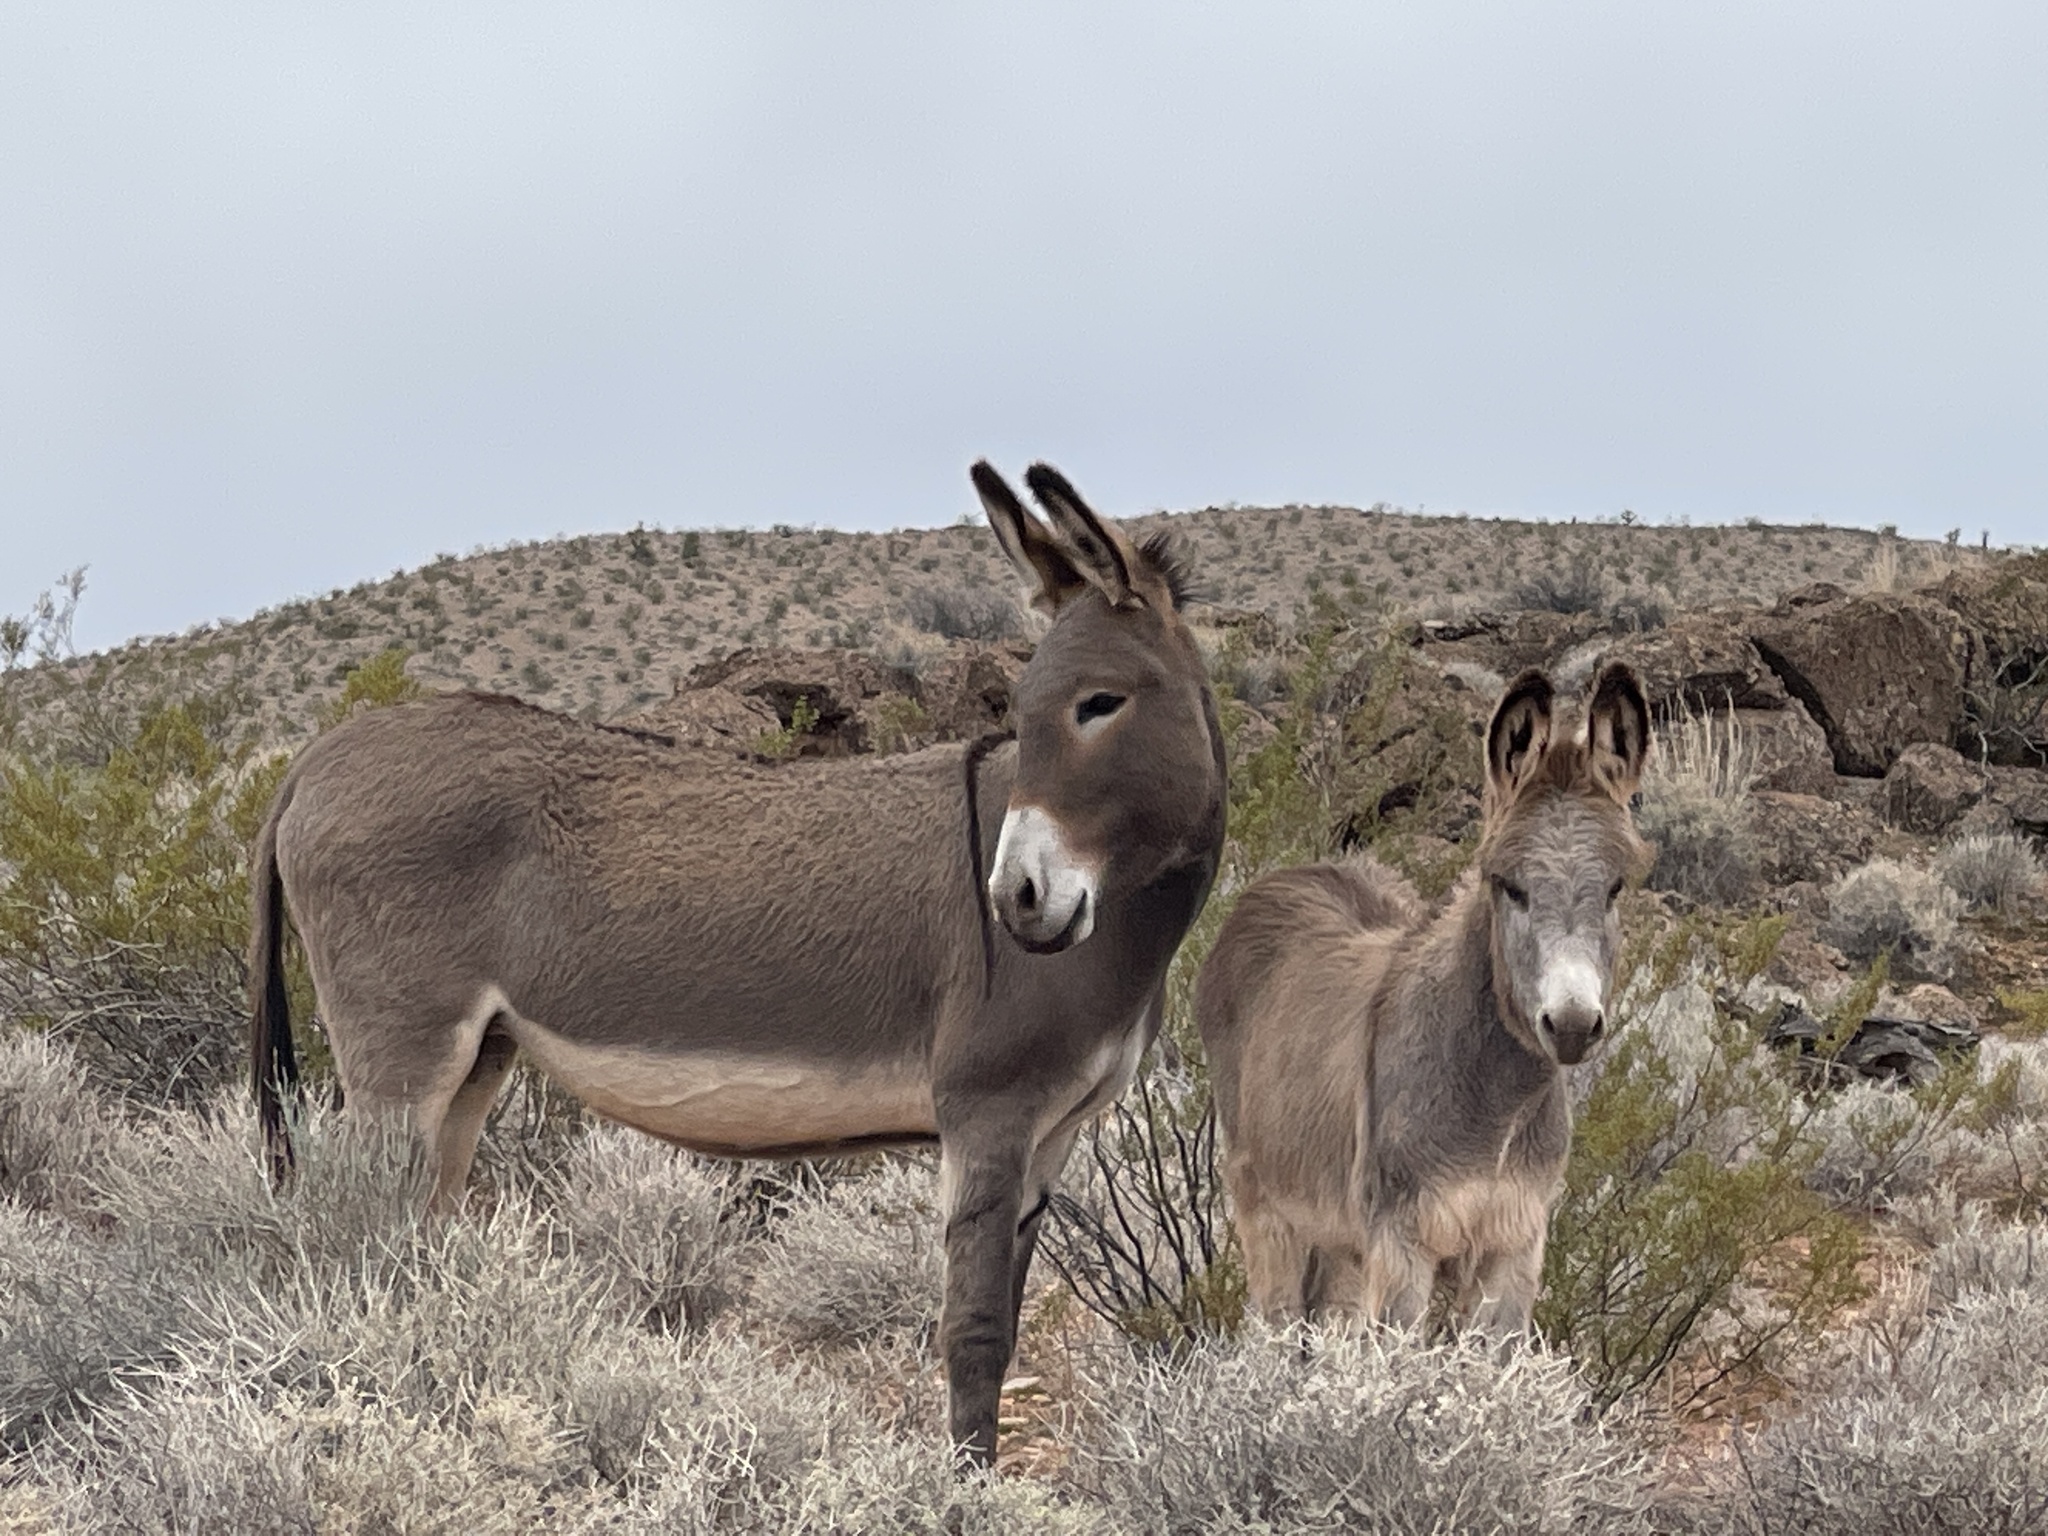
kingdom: Animalia
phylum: Chordata
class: Mammalia
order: Perissodactyla
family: Equidae
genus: Equus
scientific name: Equus asinus
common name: Ass
